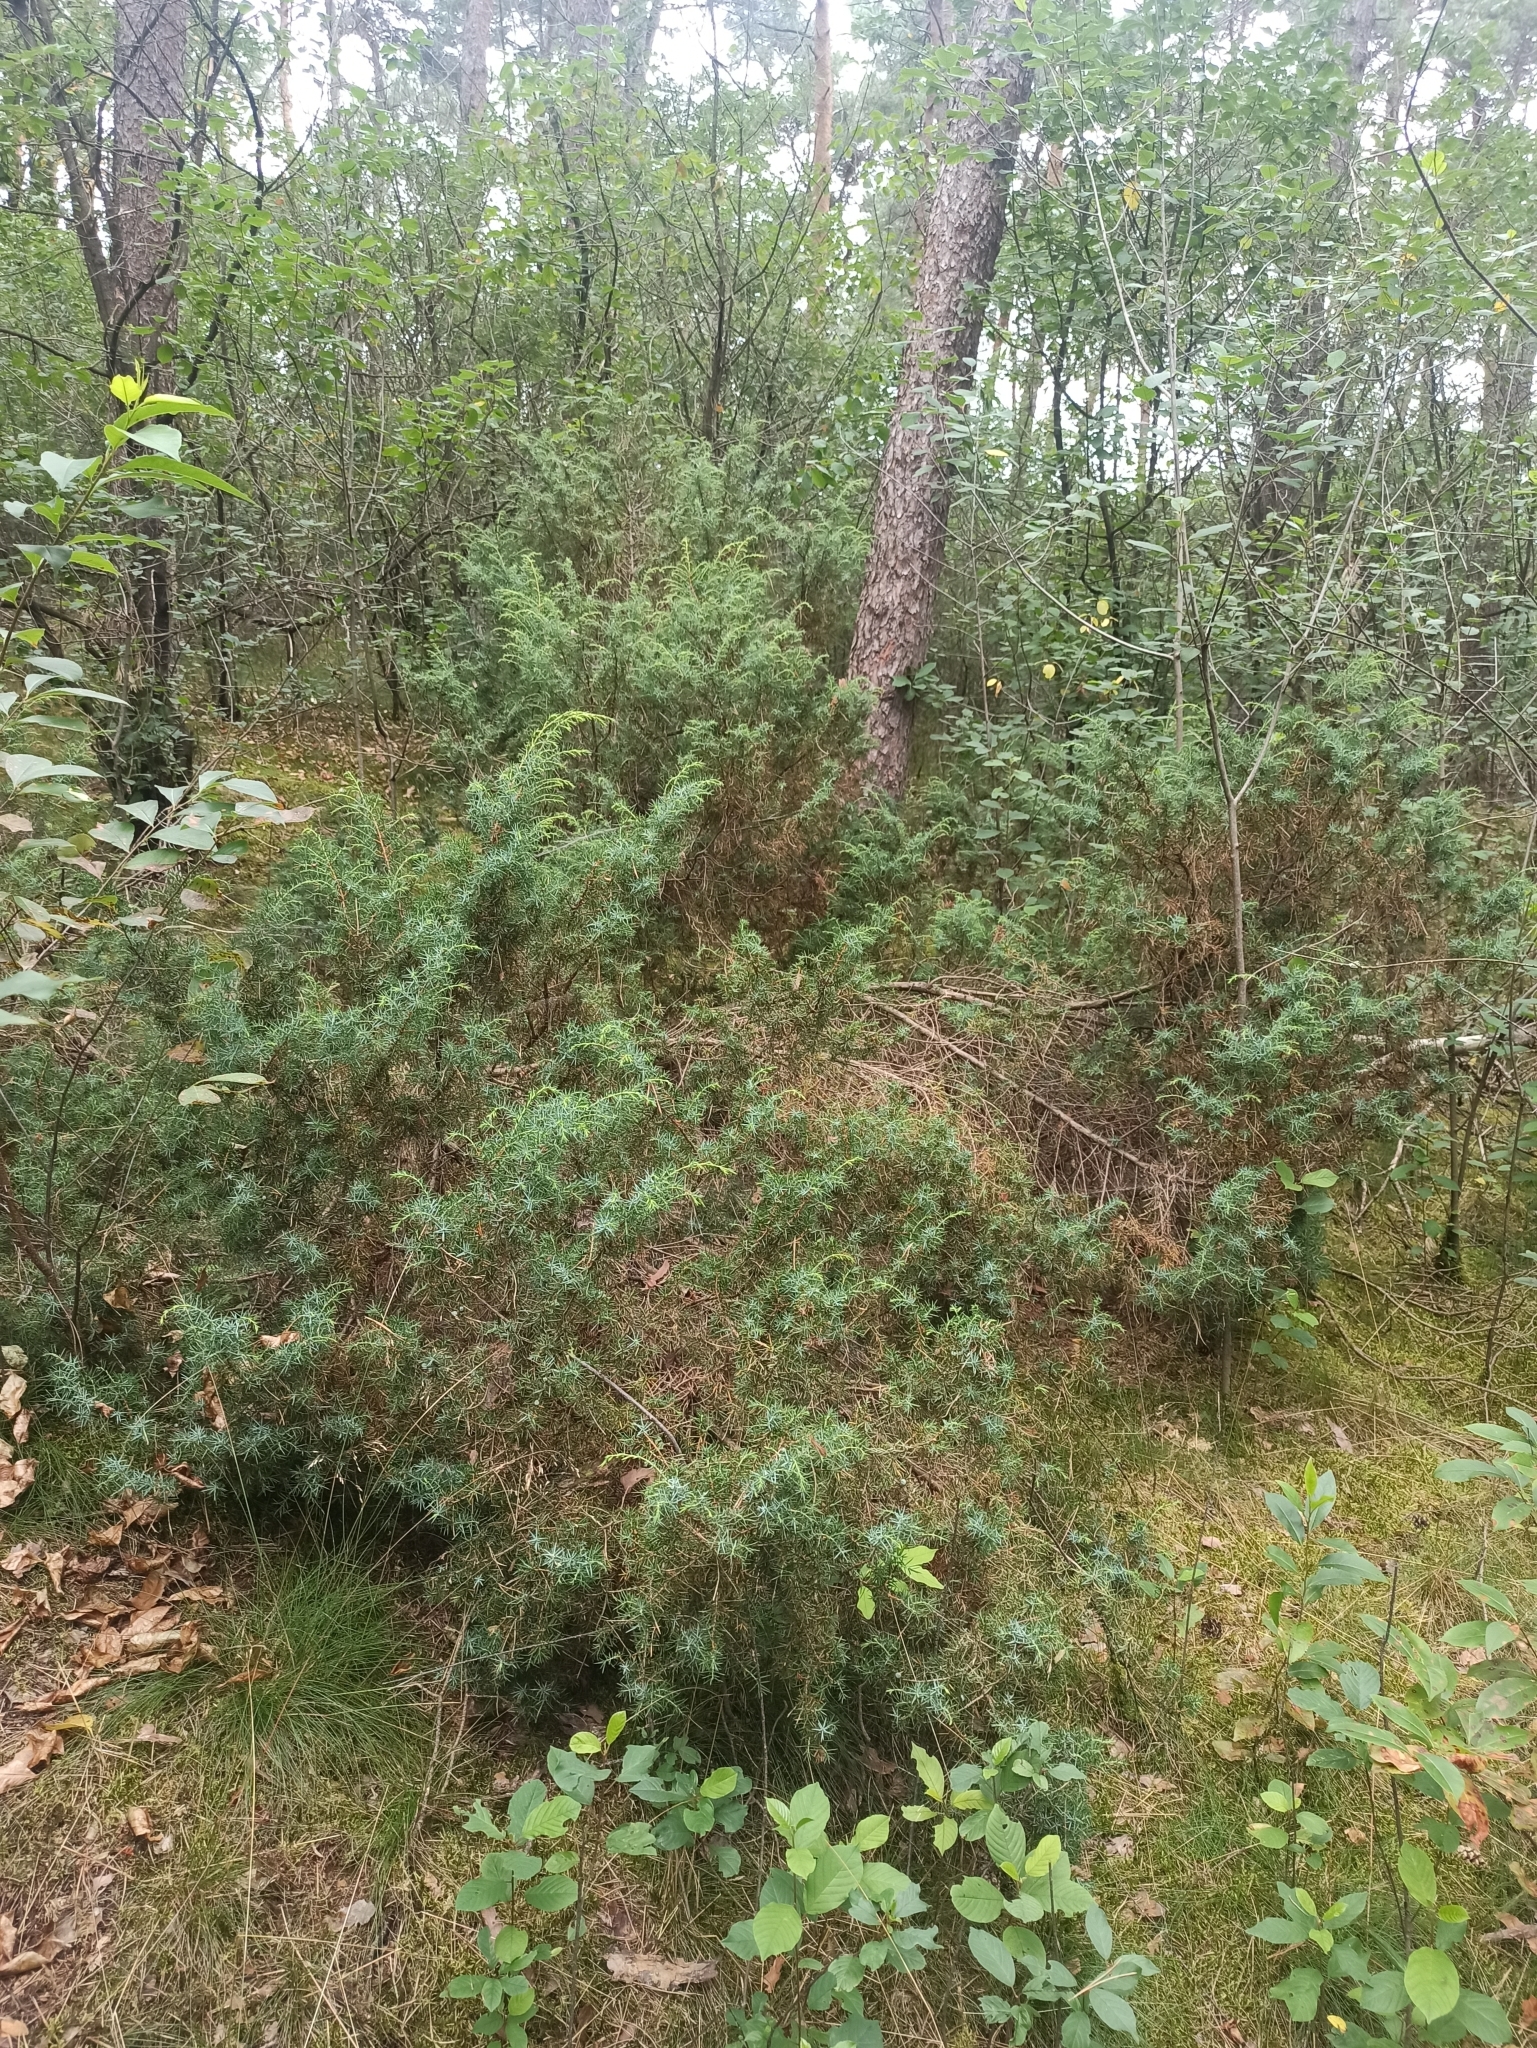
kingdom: Plantae
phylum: Tracheophyta
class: Pinopsida
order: Pinales
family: Cupressaceae
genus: Juniperus
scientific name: Juniperus communis
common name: Common juniper
